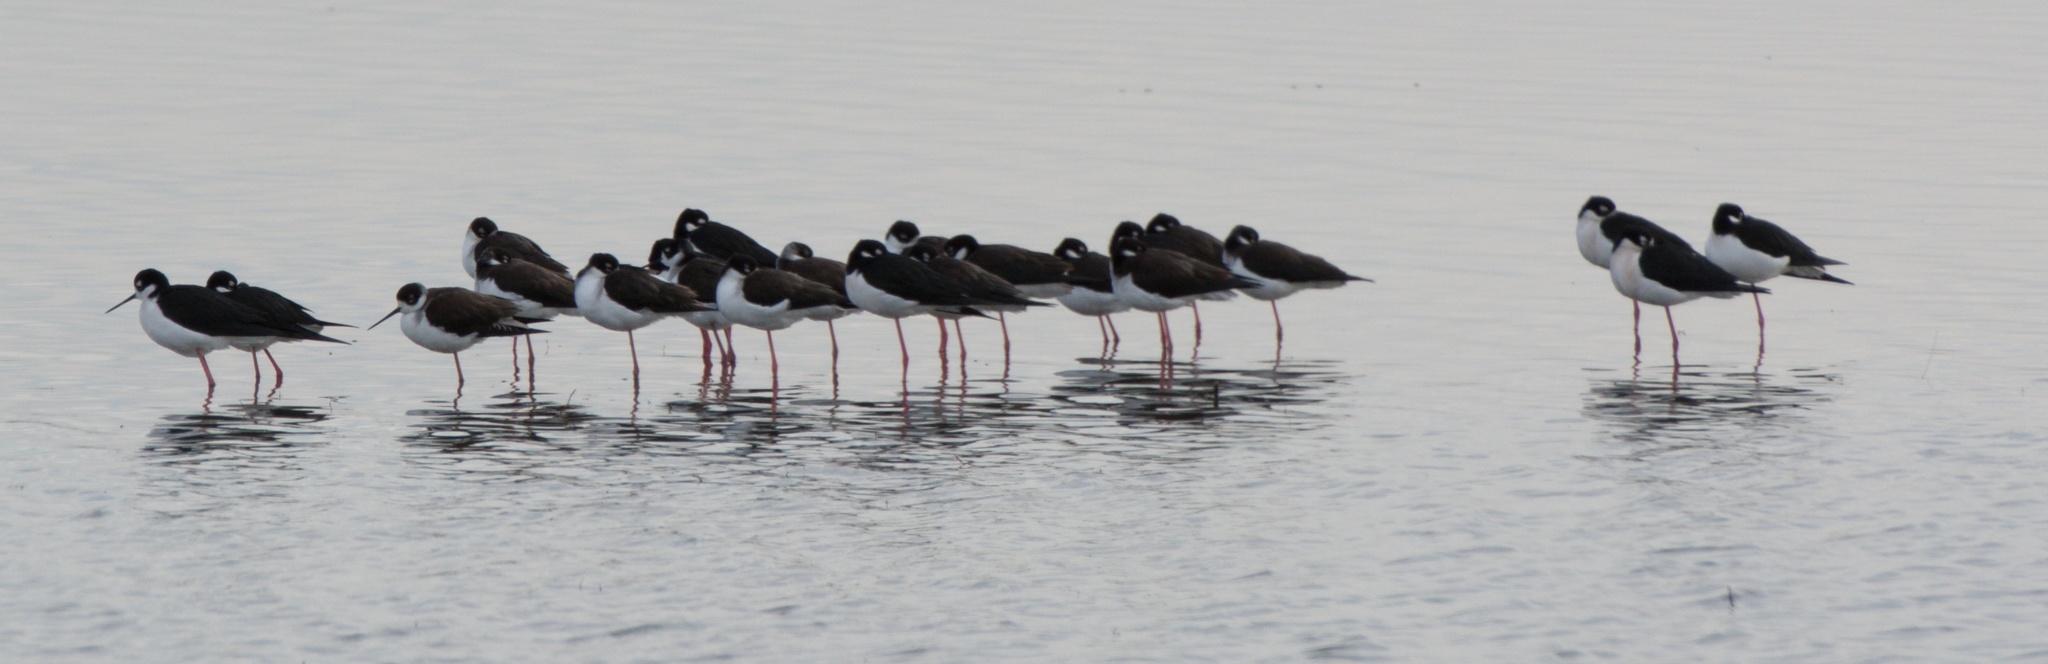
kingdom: Animalia
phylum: Chordata
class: Aves
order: Charadriiformes
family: Recurvirostridae
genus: Himantopus
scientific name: Himantopus mexicanus
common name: Black-necked stilt
